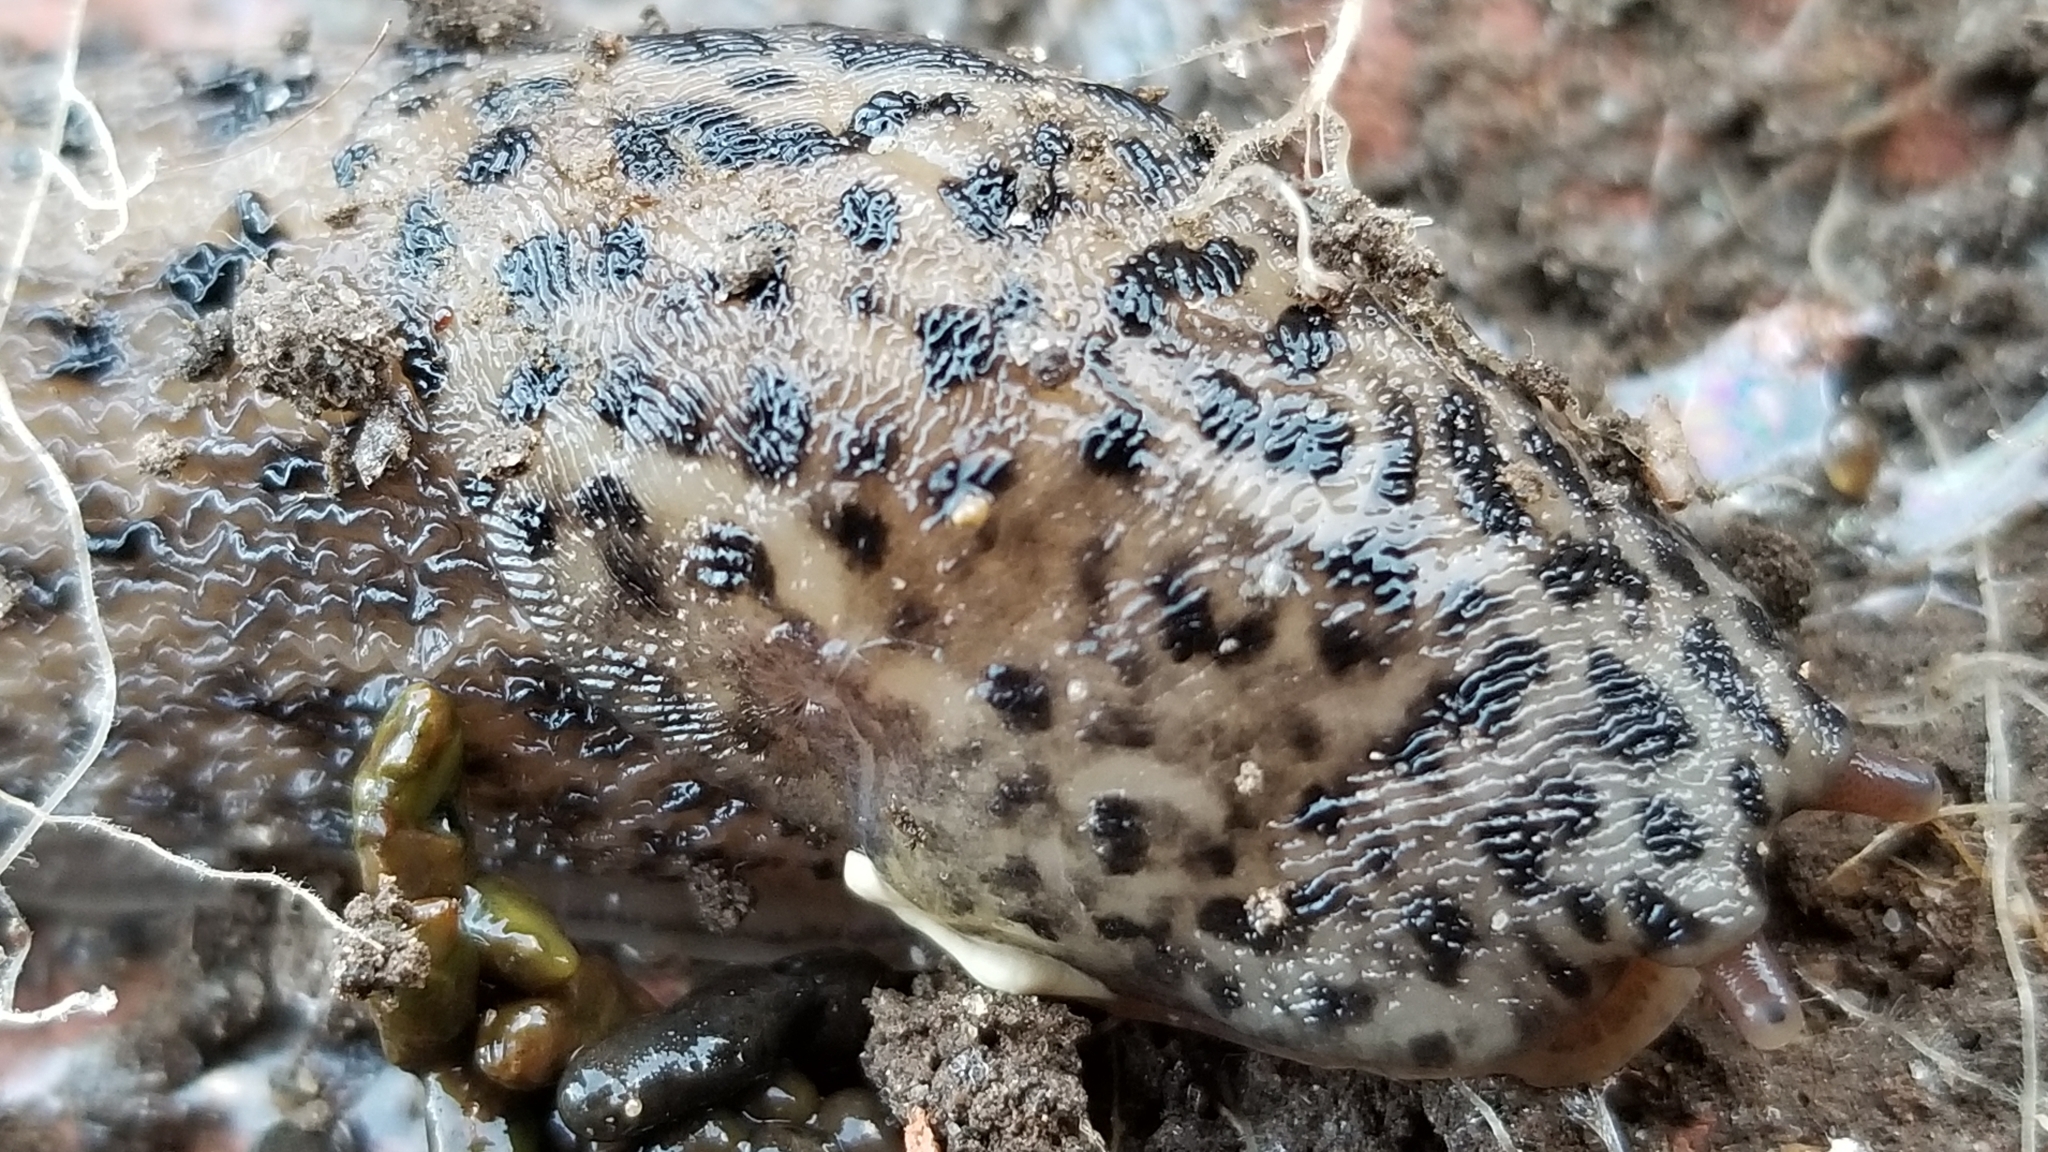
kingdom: Animalia
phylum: Mollusca
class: Gastropoda
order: Stylommatophora
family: Limacidae
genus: Limax
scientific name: Limax maximus
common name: Great grey slug
